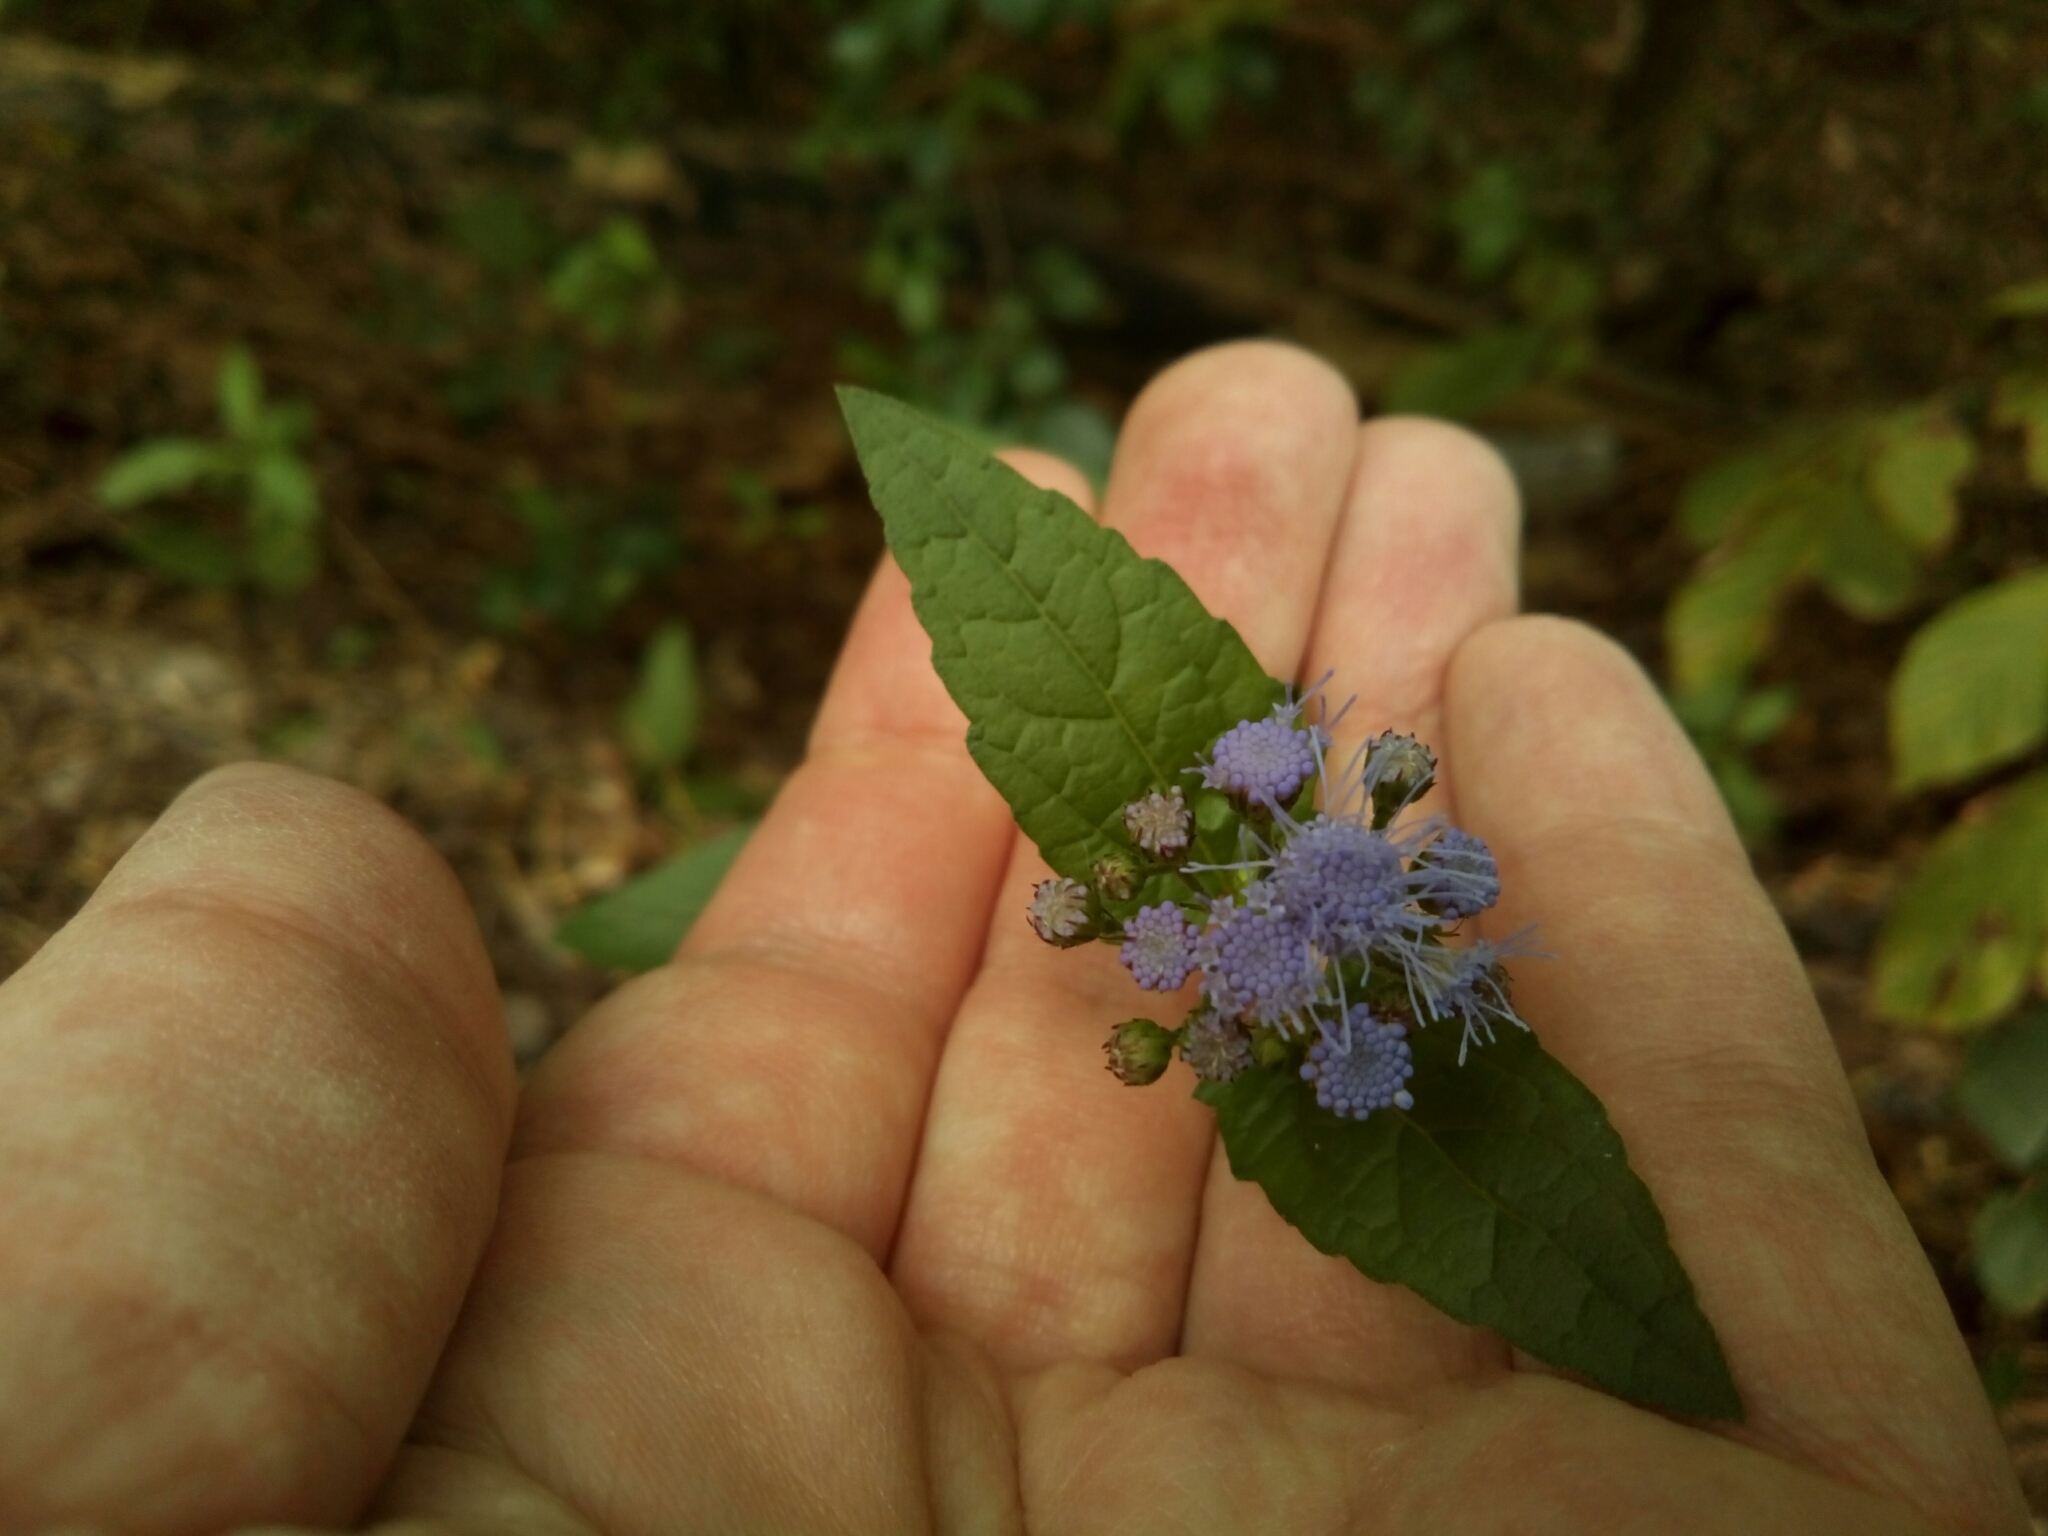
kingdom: Plantae
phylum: Tracheophyta
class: Magnoliopsida
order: Asterales
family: Asteraceae
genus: Conoclinium
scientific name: Conoclinium coelestinum
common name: Blue mistflower
